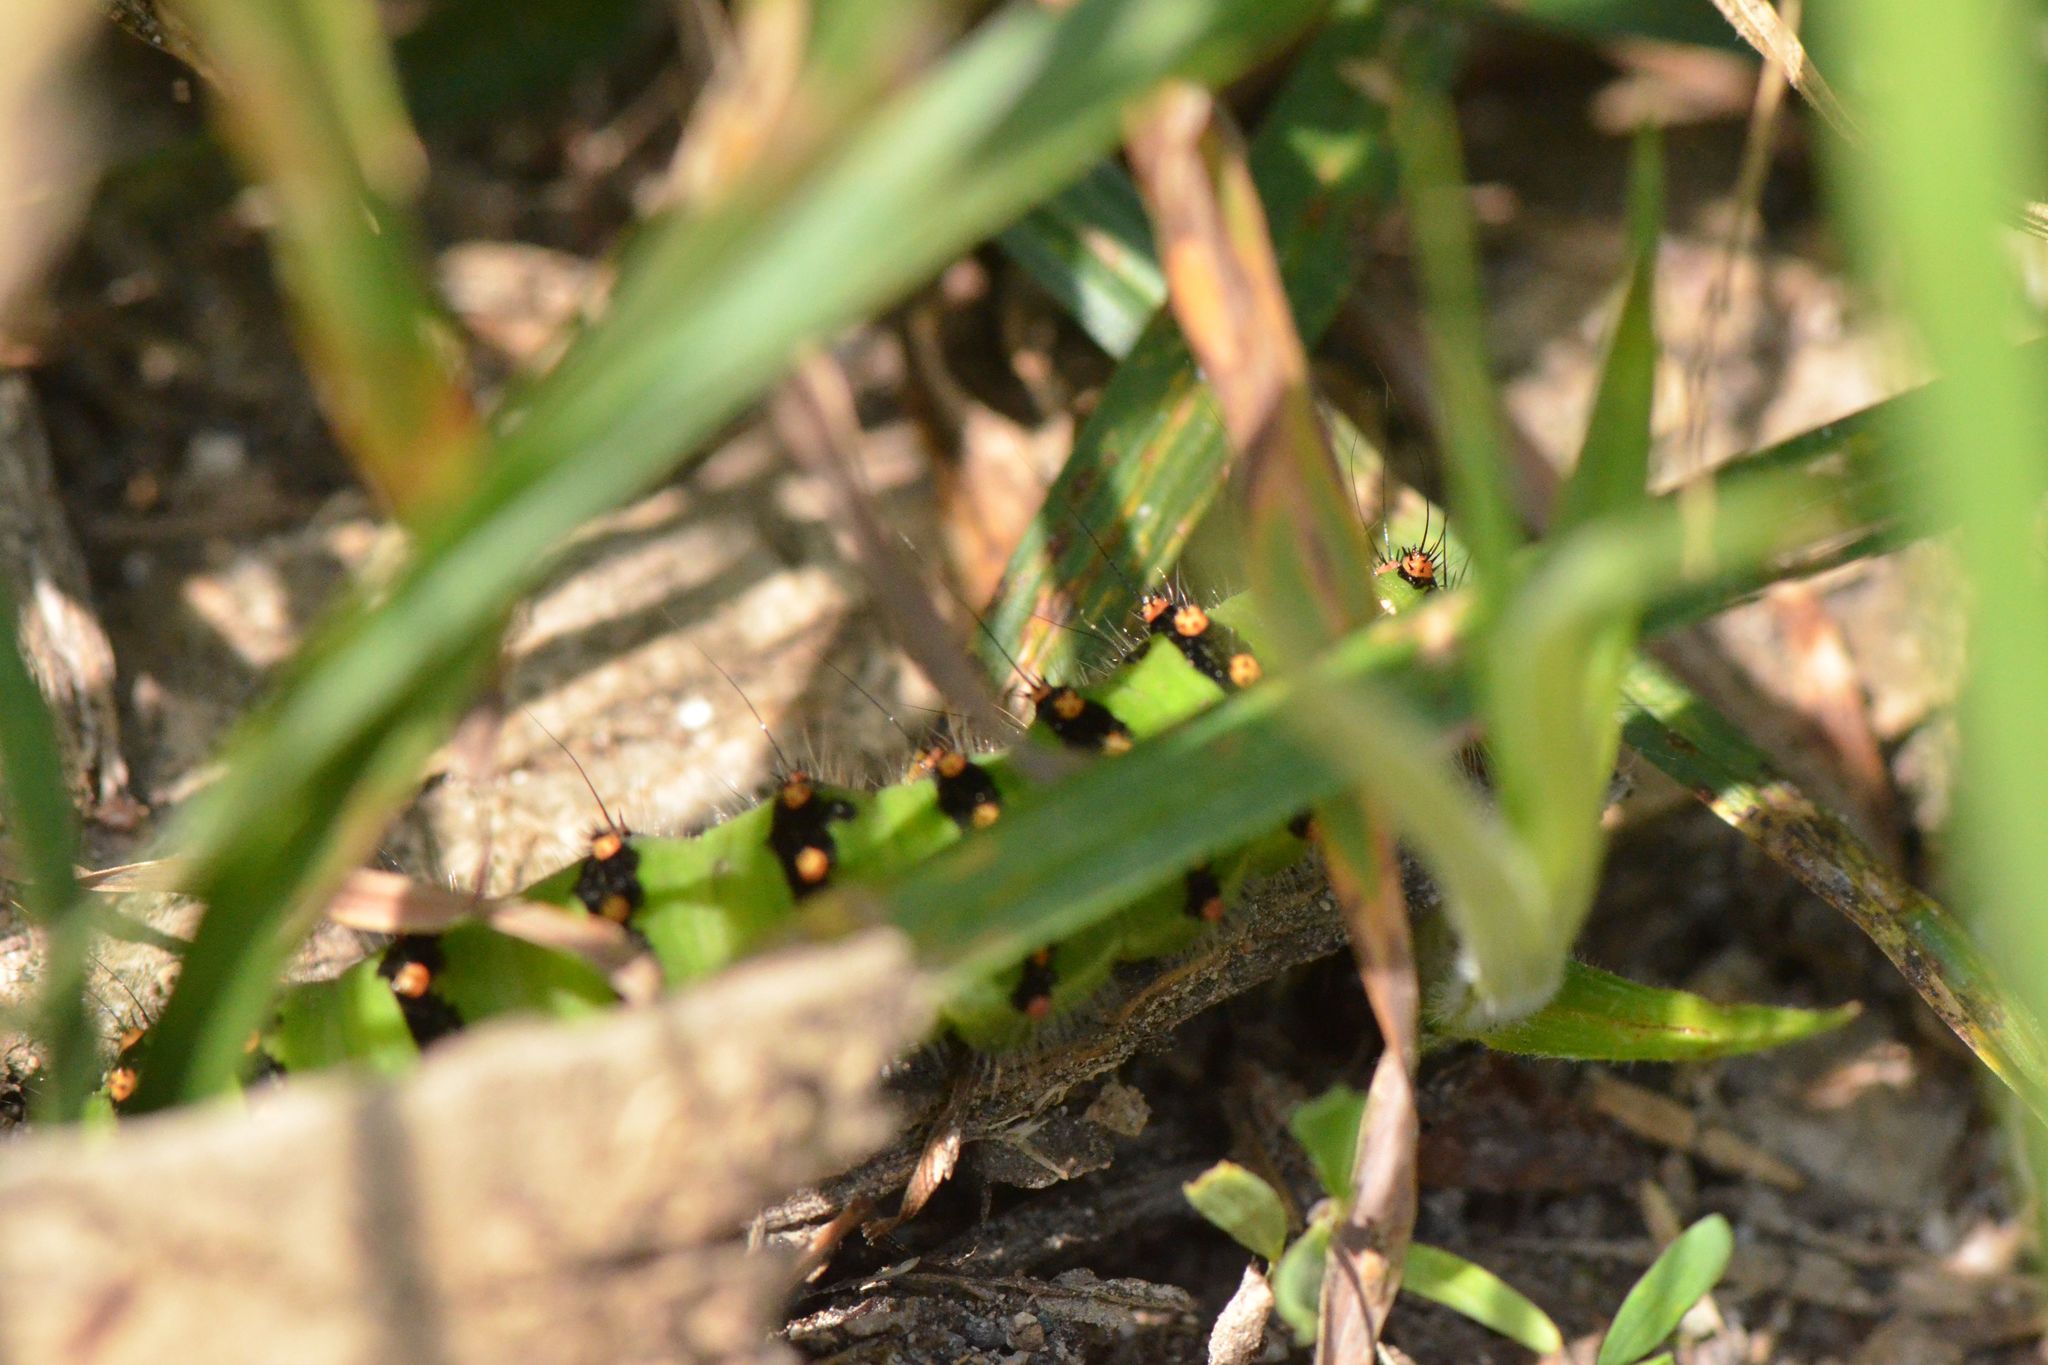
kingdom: Animalia
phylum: Arthropoda
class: Insecta
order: Lepidoptera
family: Saturniidae
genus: Saturnia
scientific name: Saturnia pavonia
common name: Emperor moth
